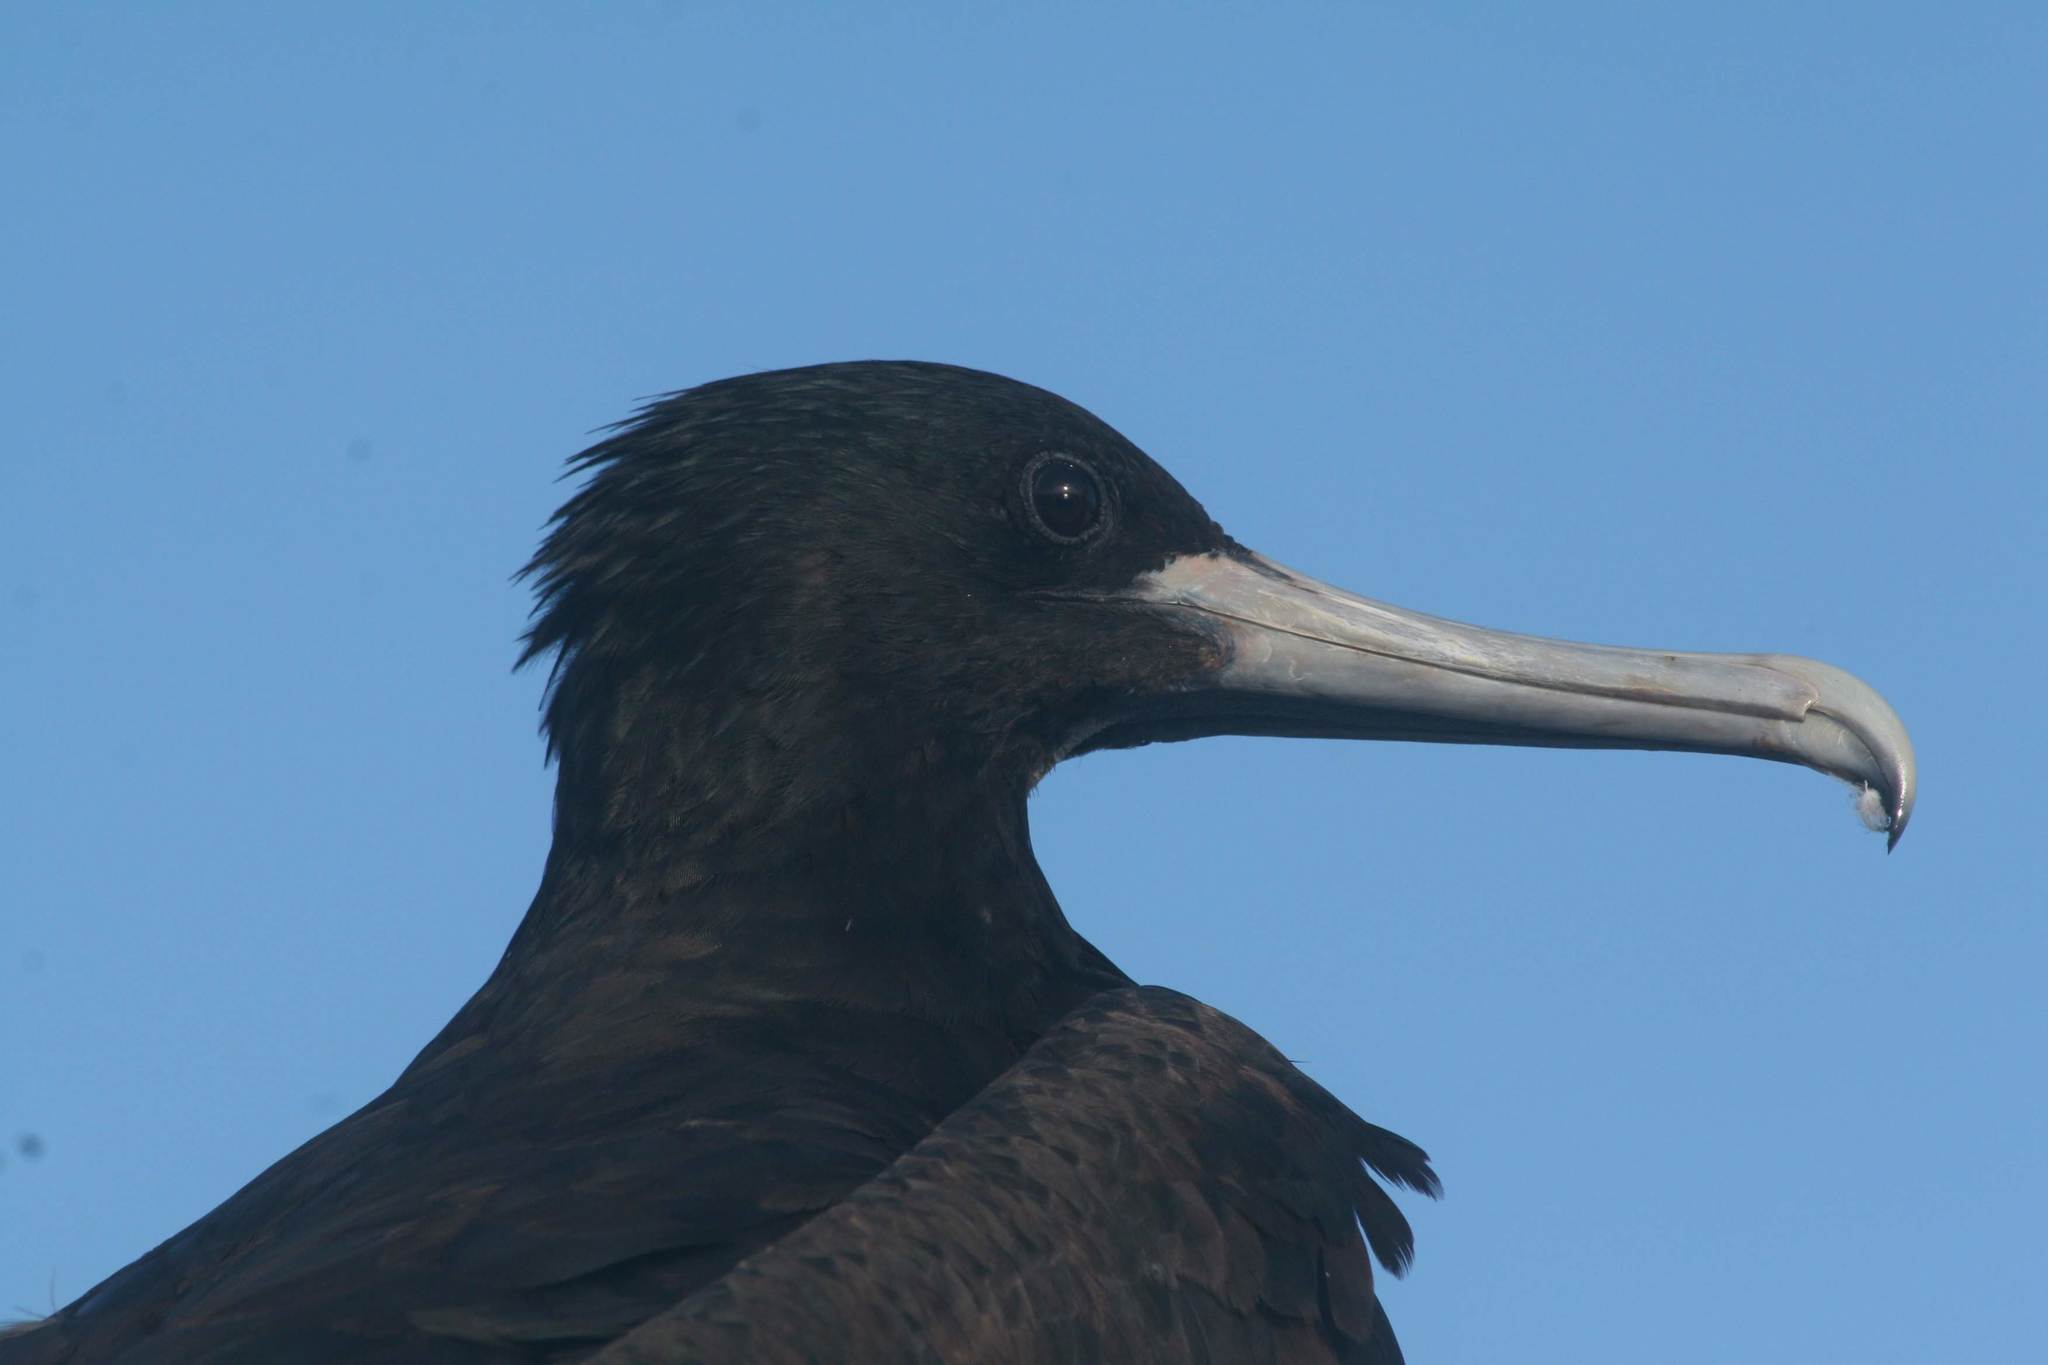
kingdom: Animalia
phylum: Chordata
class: Aves
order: Suliformes
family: Fregatidae
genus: Fregata
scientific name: Fregata magnificens
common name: Magnificent frigatebird
